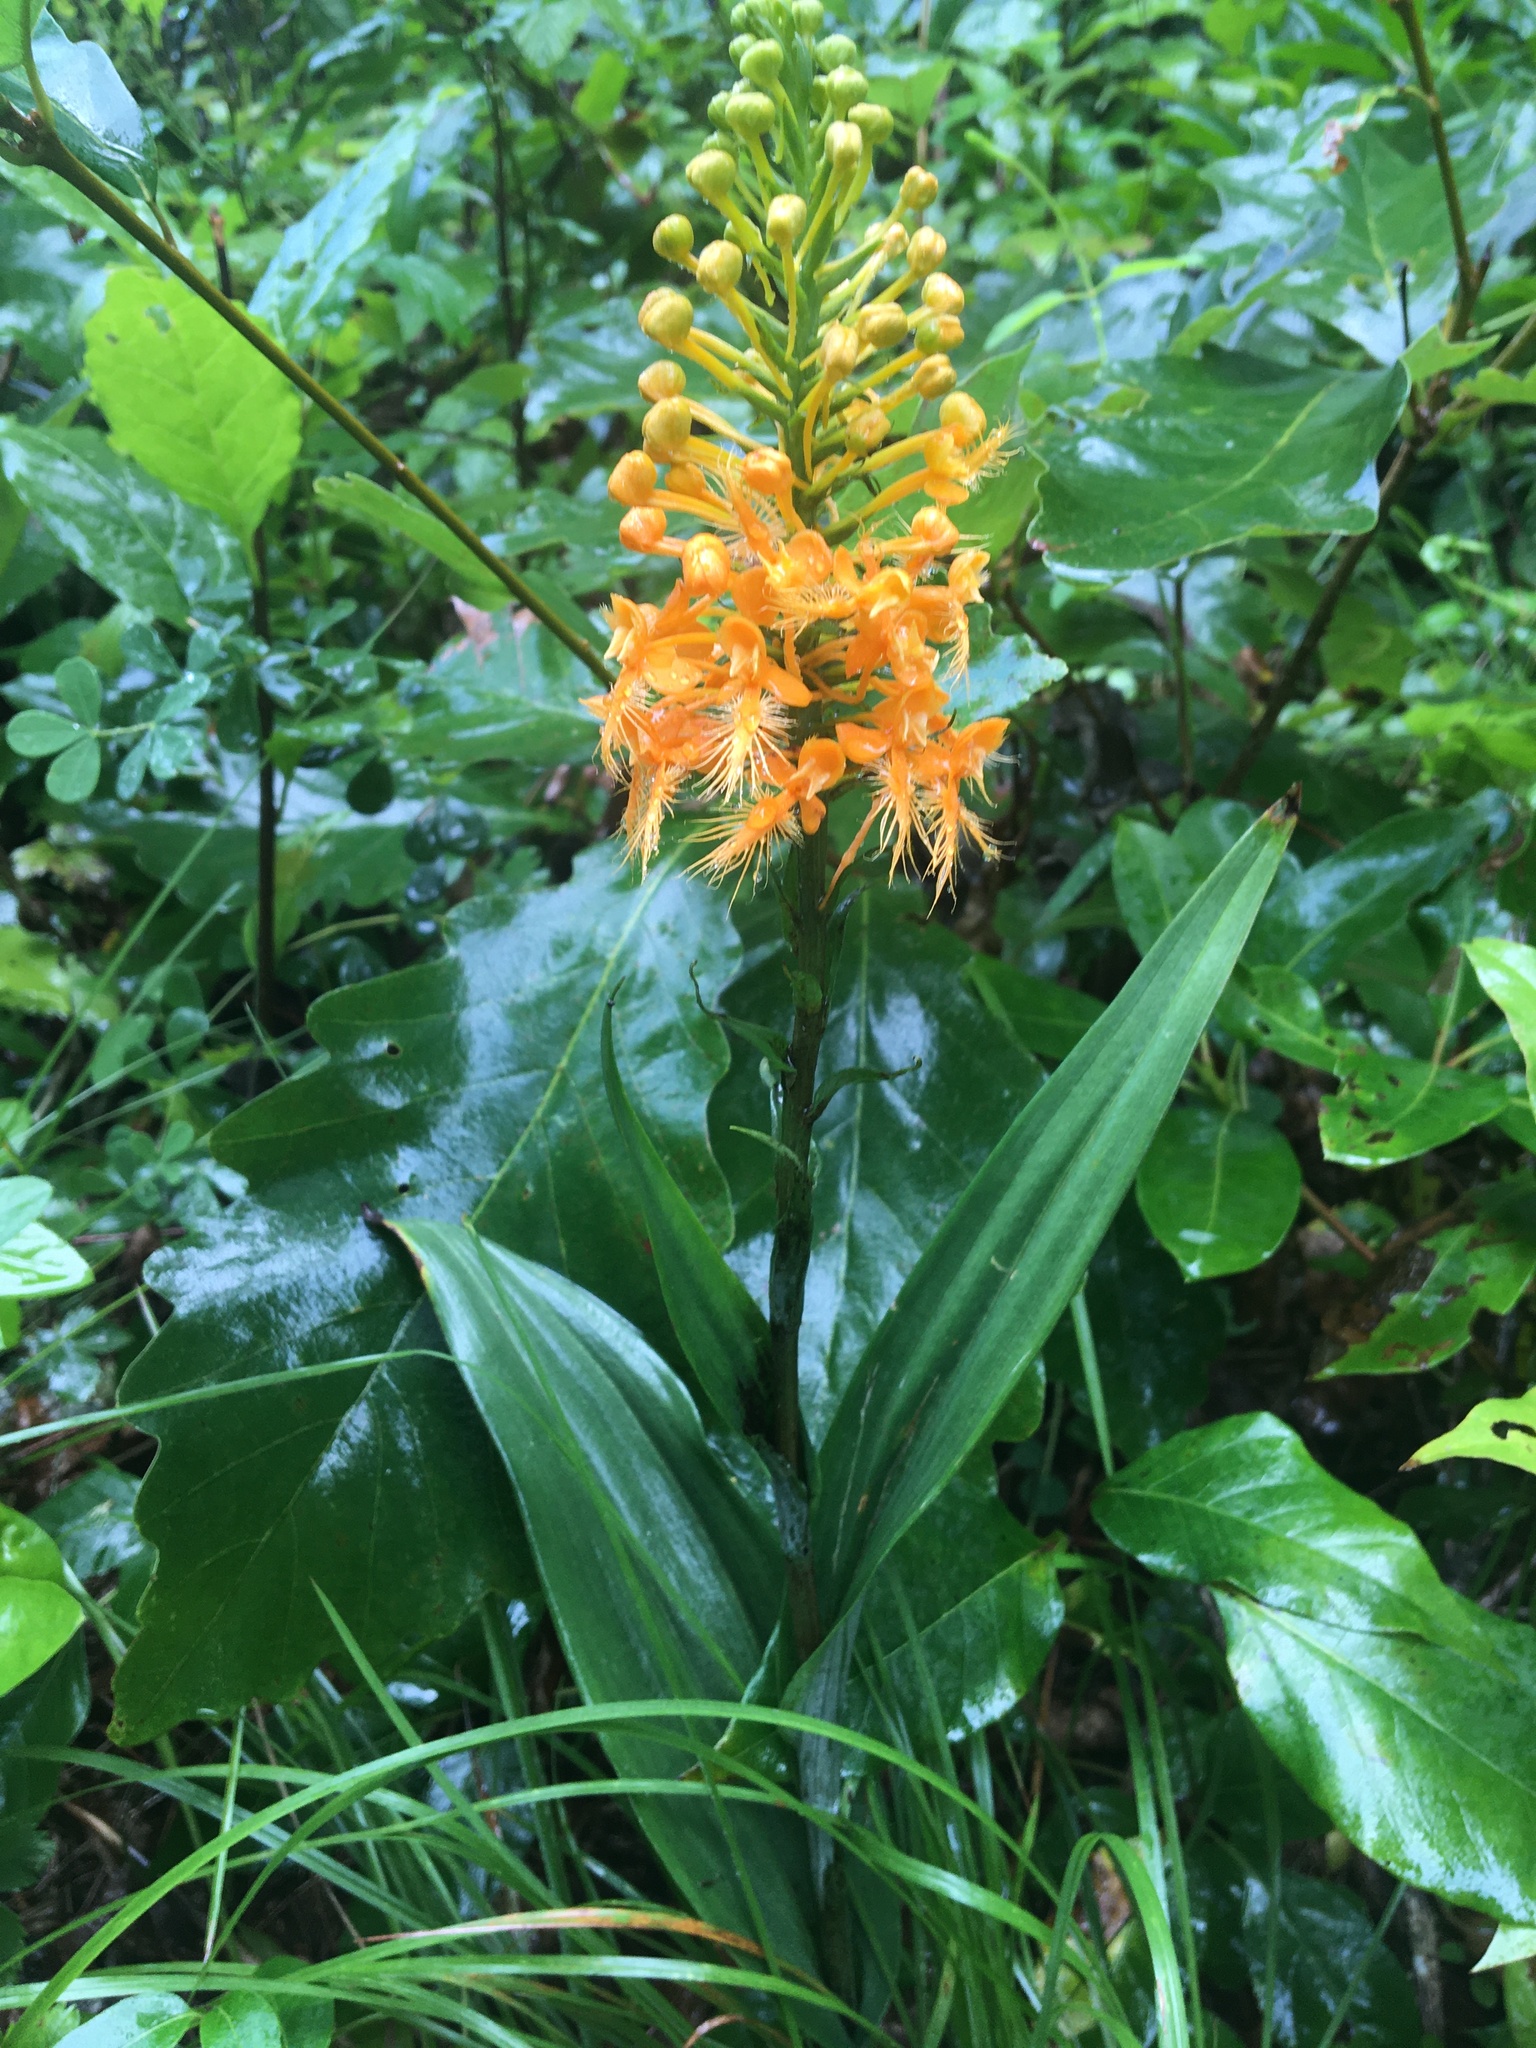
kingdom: Plantae
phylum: Tracheophyta
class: Liliopsida
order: Asparagales
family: Orchidaceae
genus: Platanthera
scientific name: Platanthera ciliaris
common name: Yellow fringed orchid
